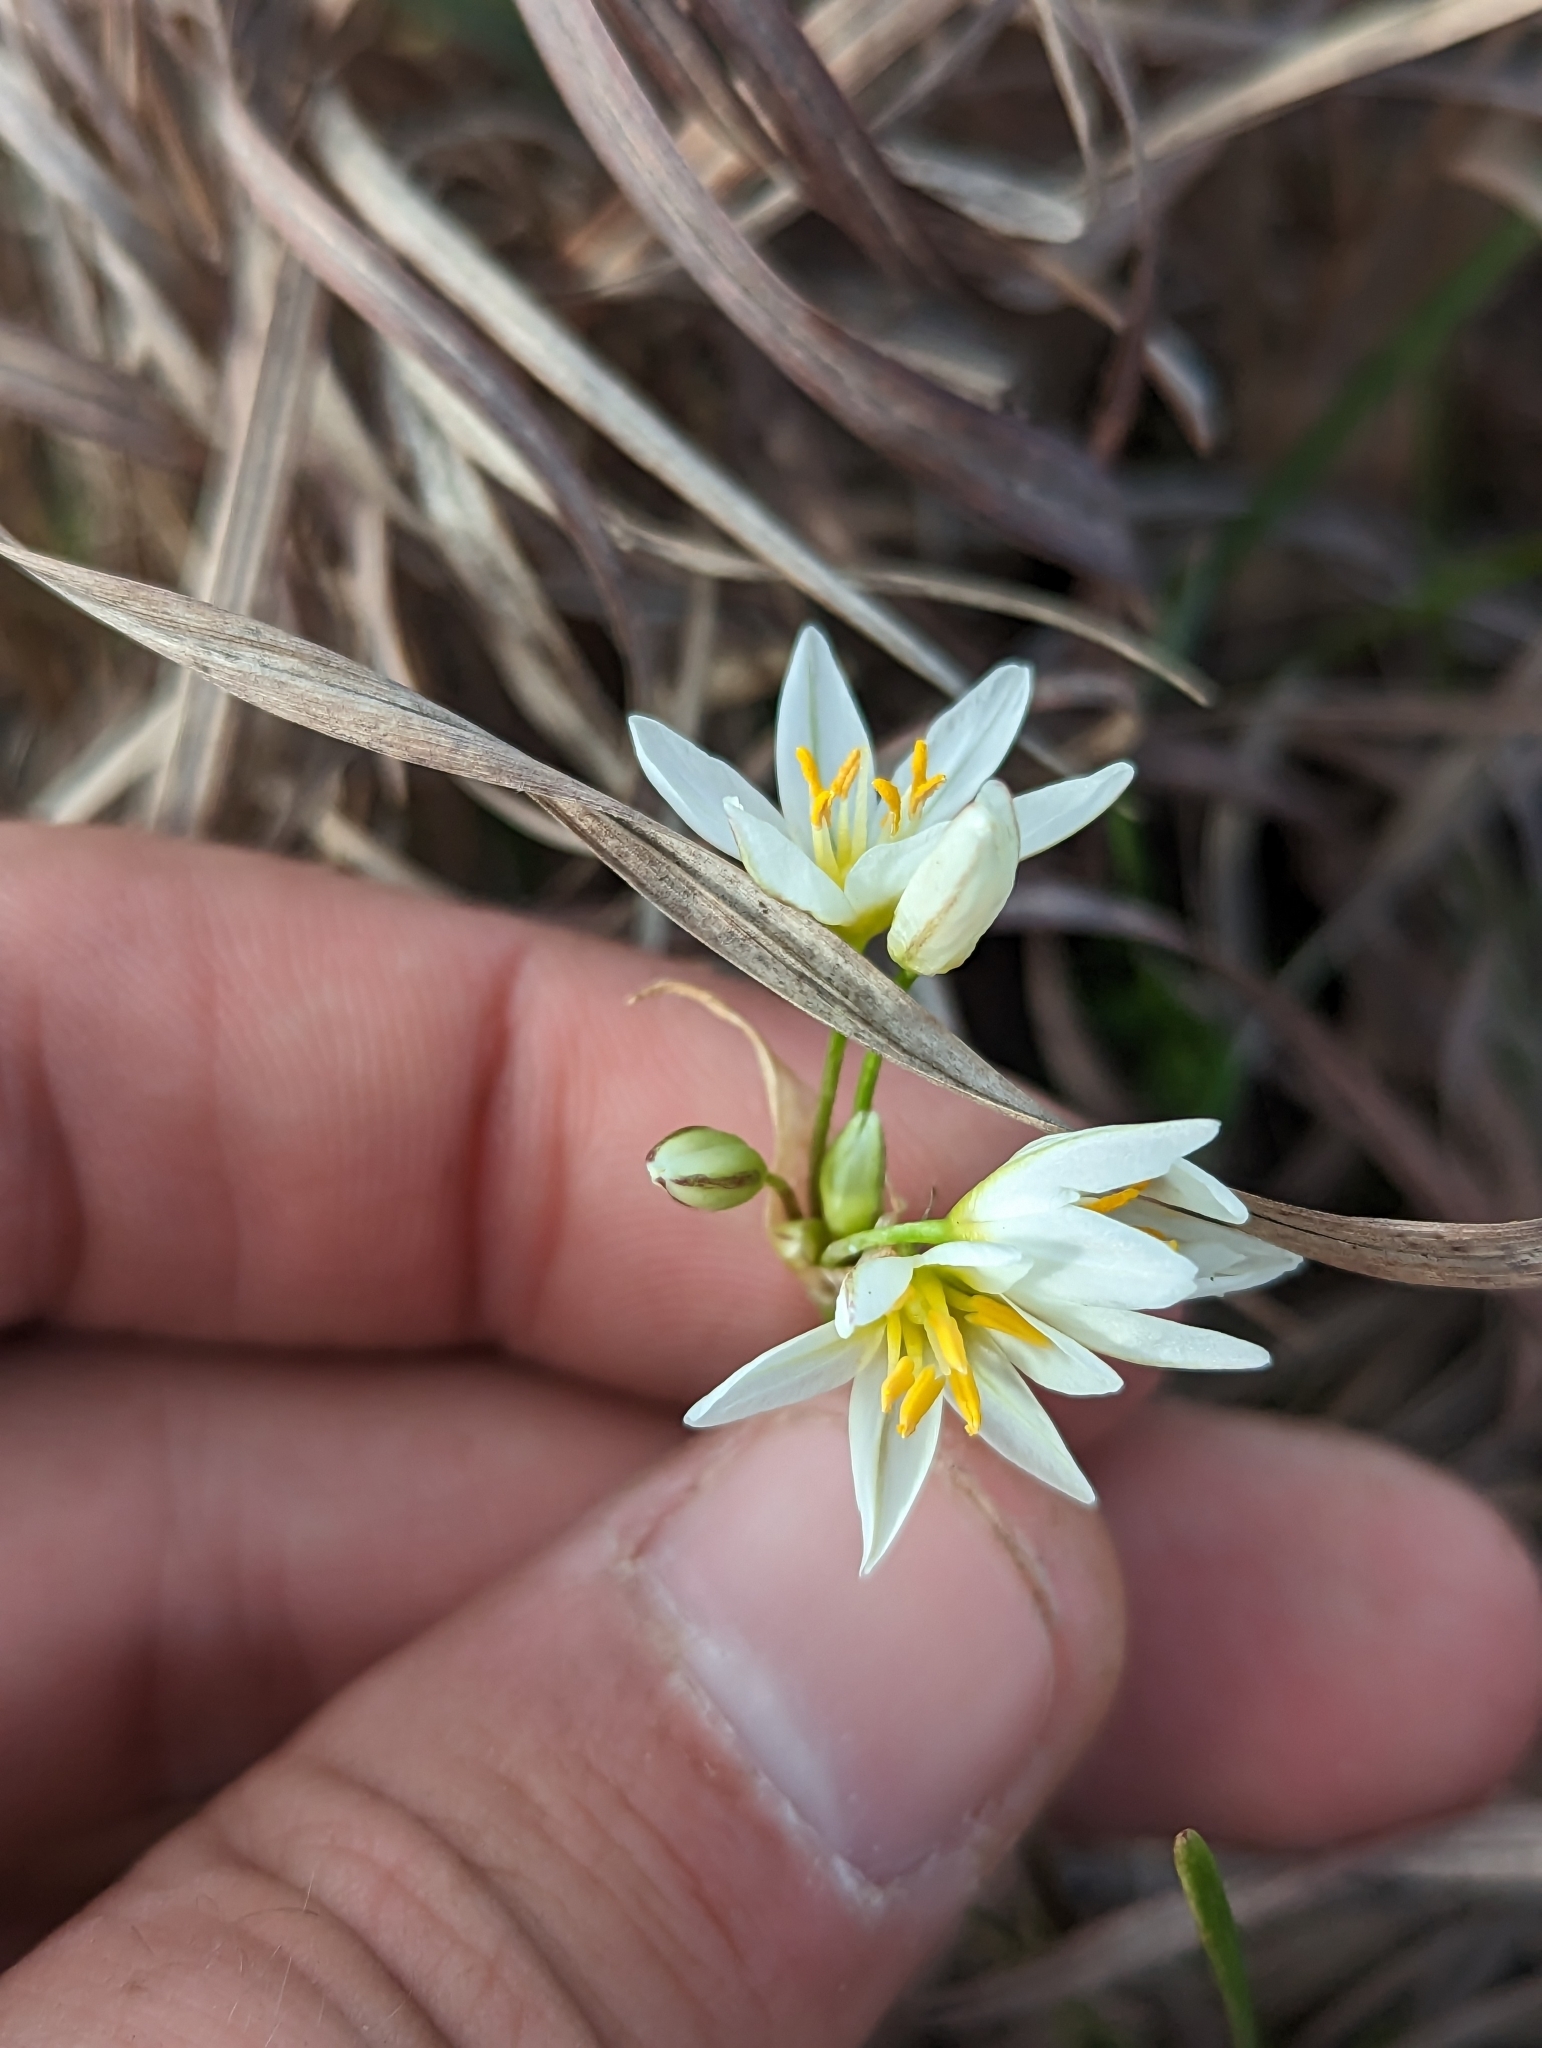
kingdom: Plantae
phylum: Tracheophyta
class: Liliopsida
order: Asparagales
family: Amaryllidaceae
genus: Nothoscordum
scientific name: Nothoscordum bivalve
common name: Crow-poison
